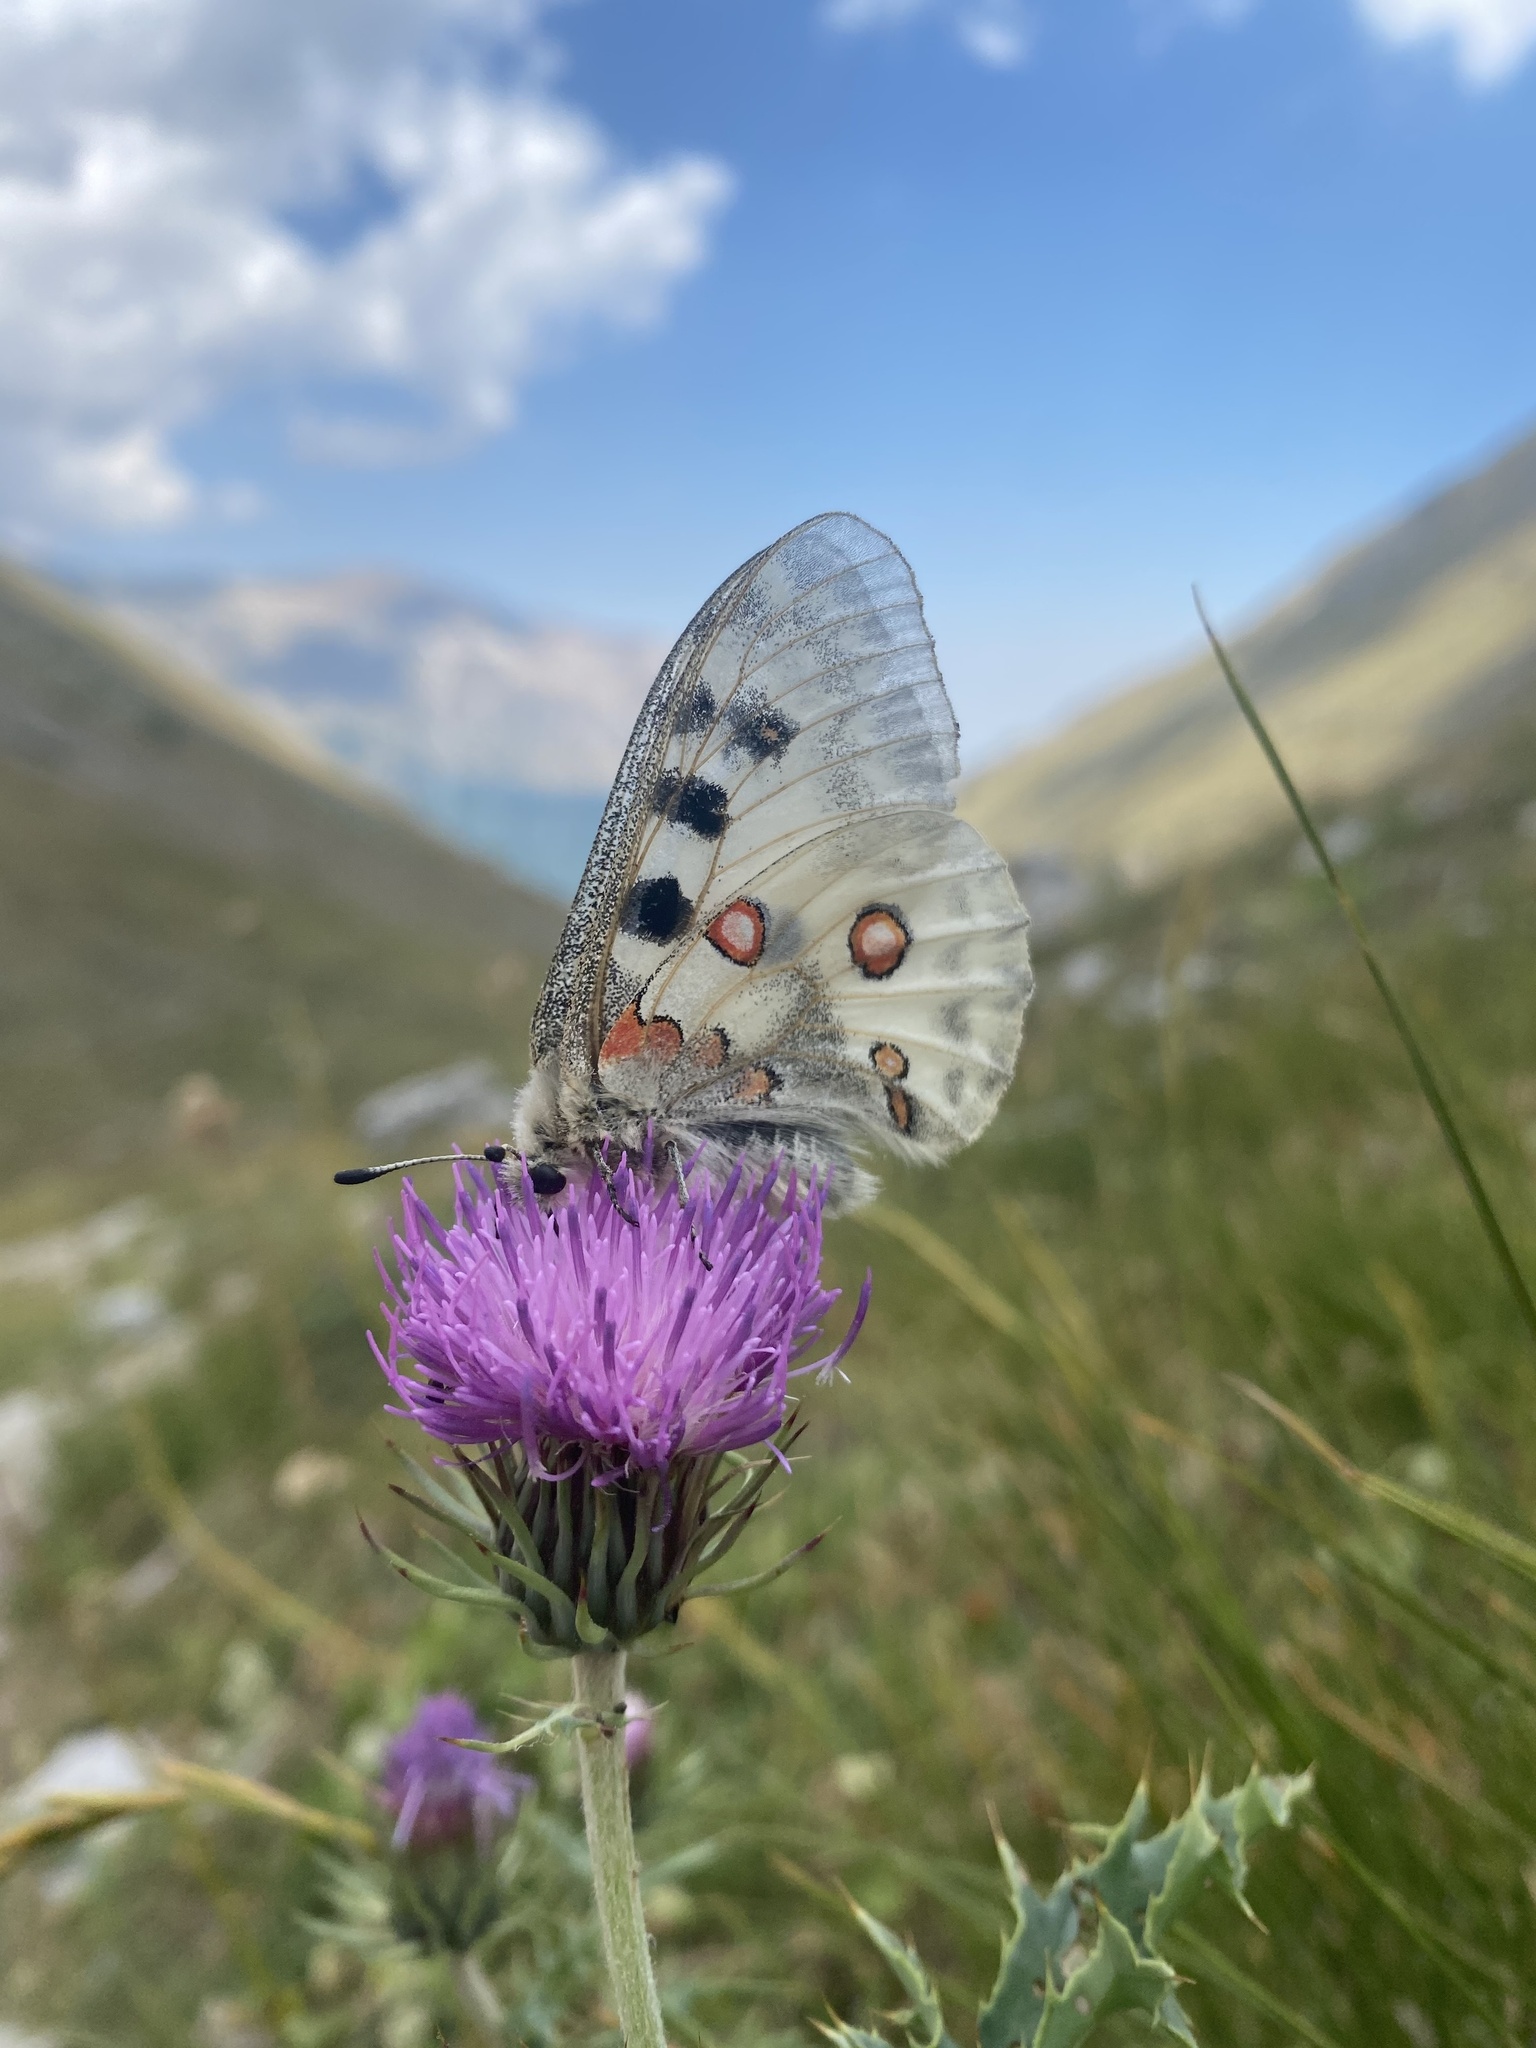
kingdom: Animalia
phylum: Arthropoda
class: Insecta
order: Lepidoptera
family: Papilionidae
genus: Parnassius
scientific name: Parnassius apollo
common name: Apollo
